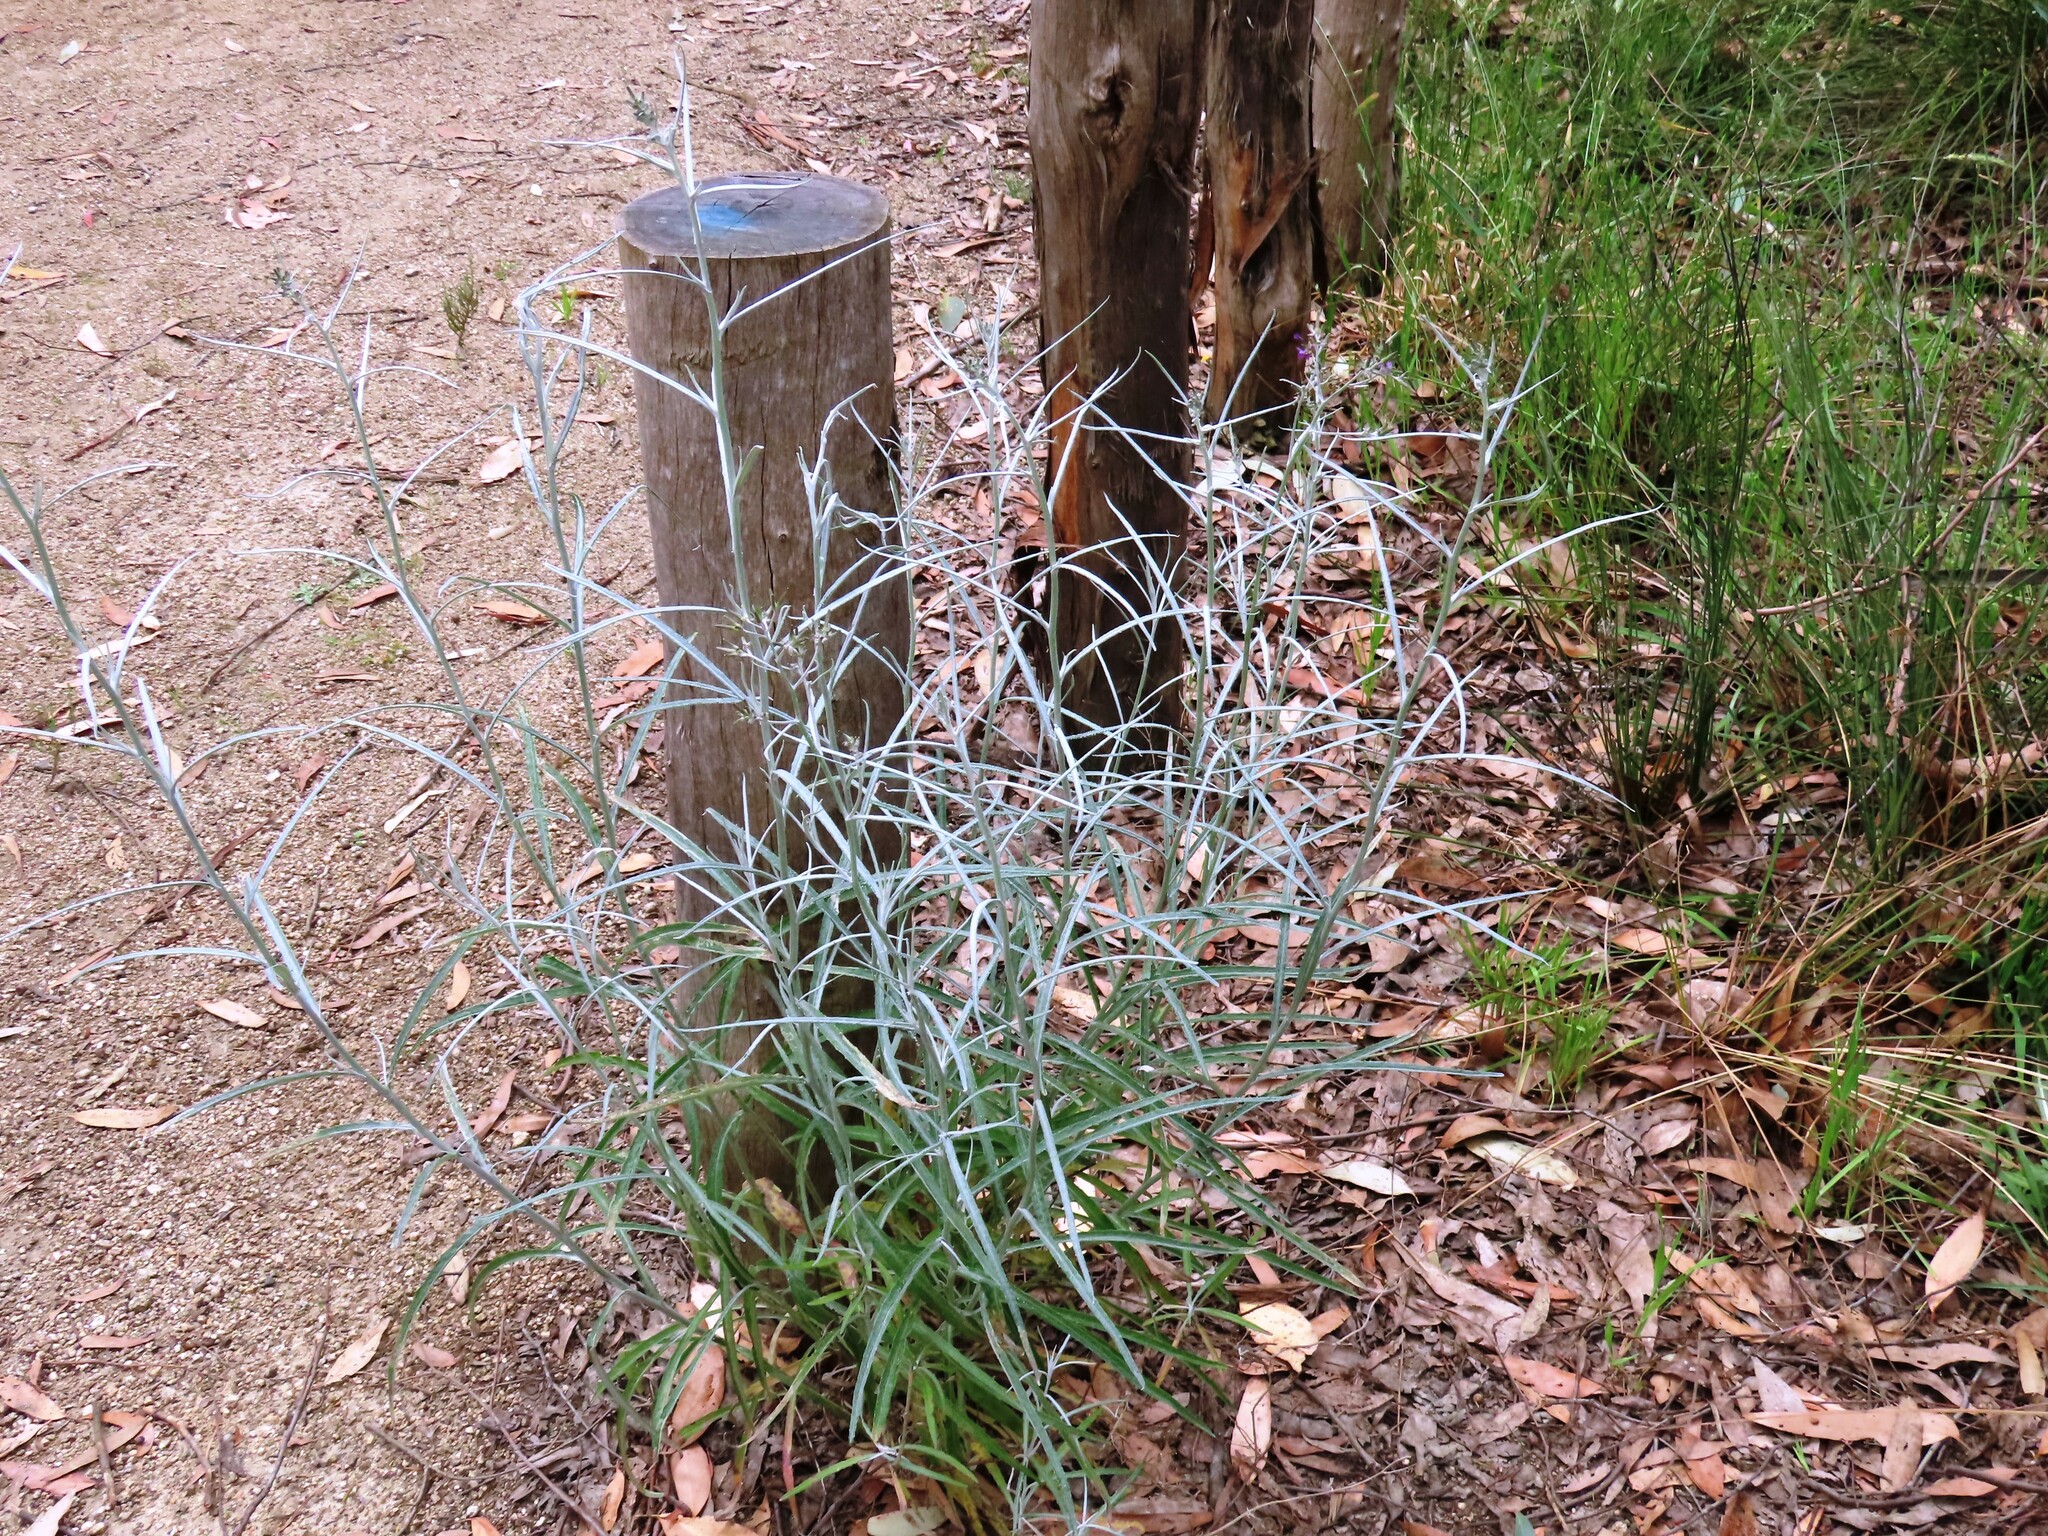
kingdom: Plantae
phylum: Tracheophyta
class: Magnoliopsida
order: Asterales
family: Asteraceae
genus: Senecio
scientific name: Senecio quadridentatus
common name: Cotton fireweed
